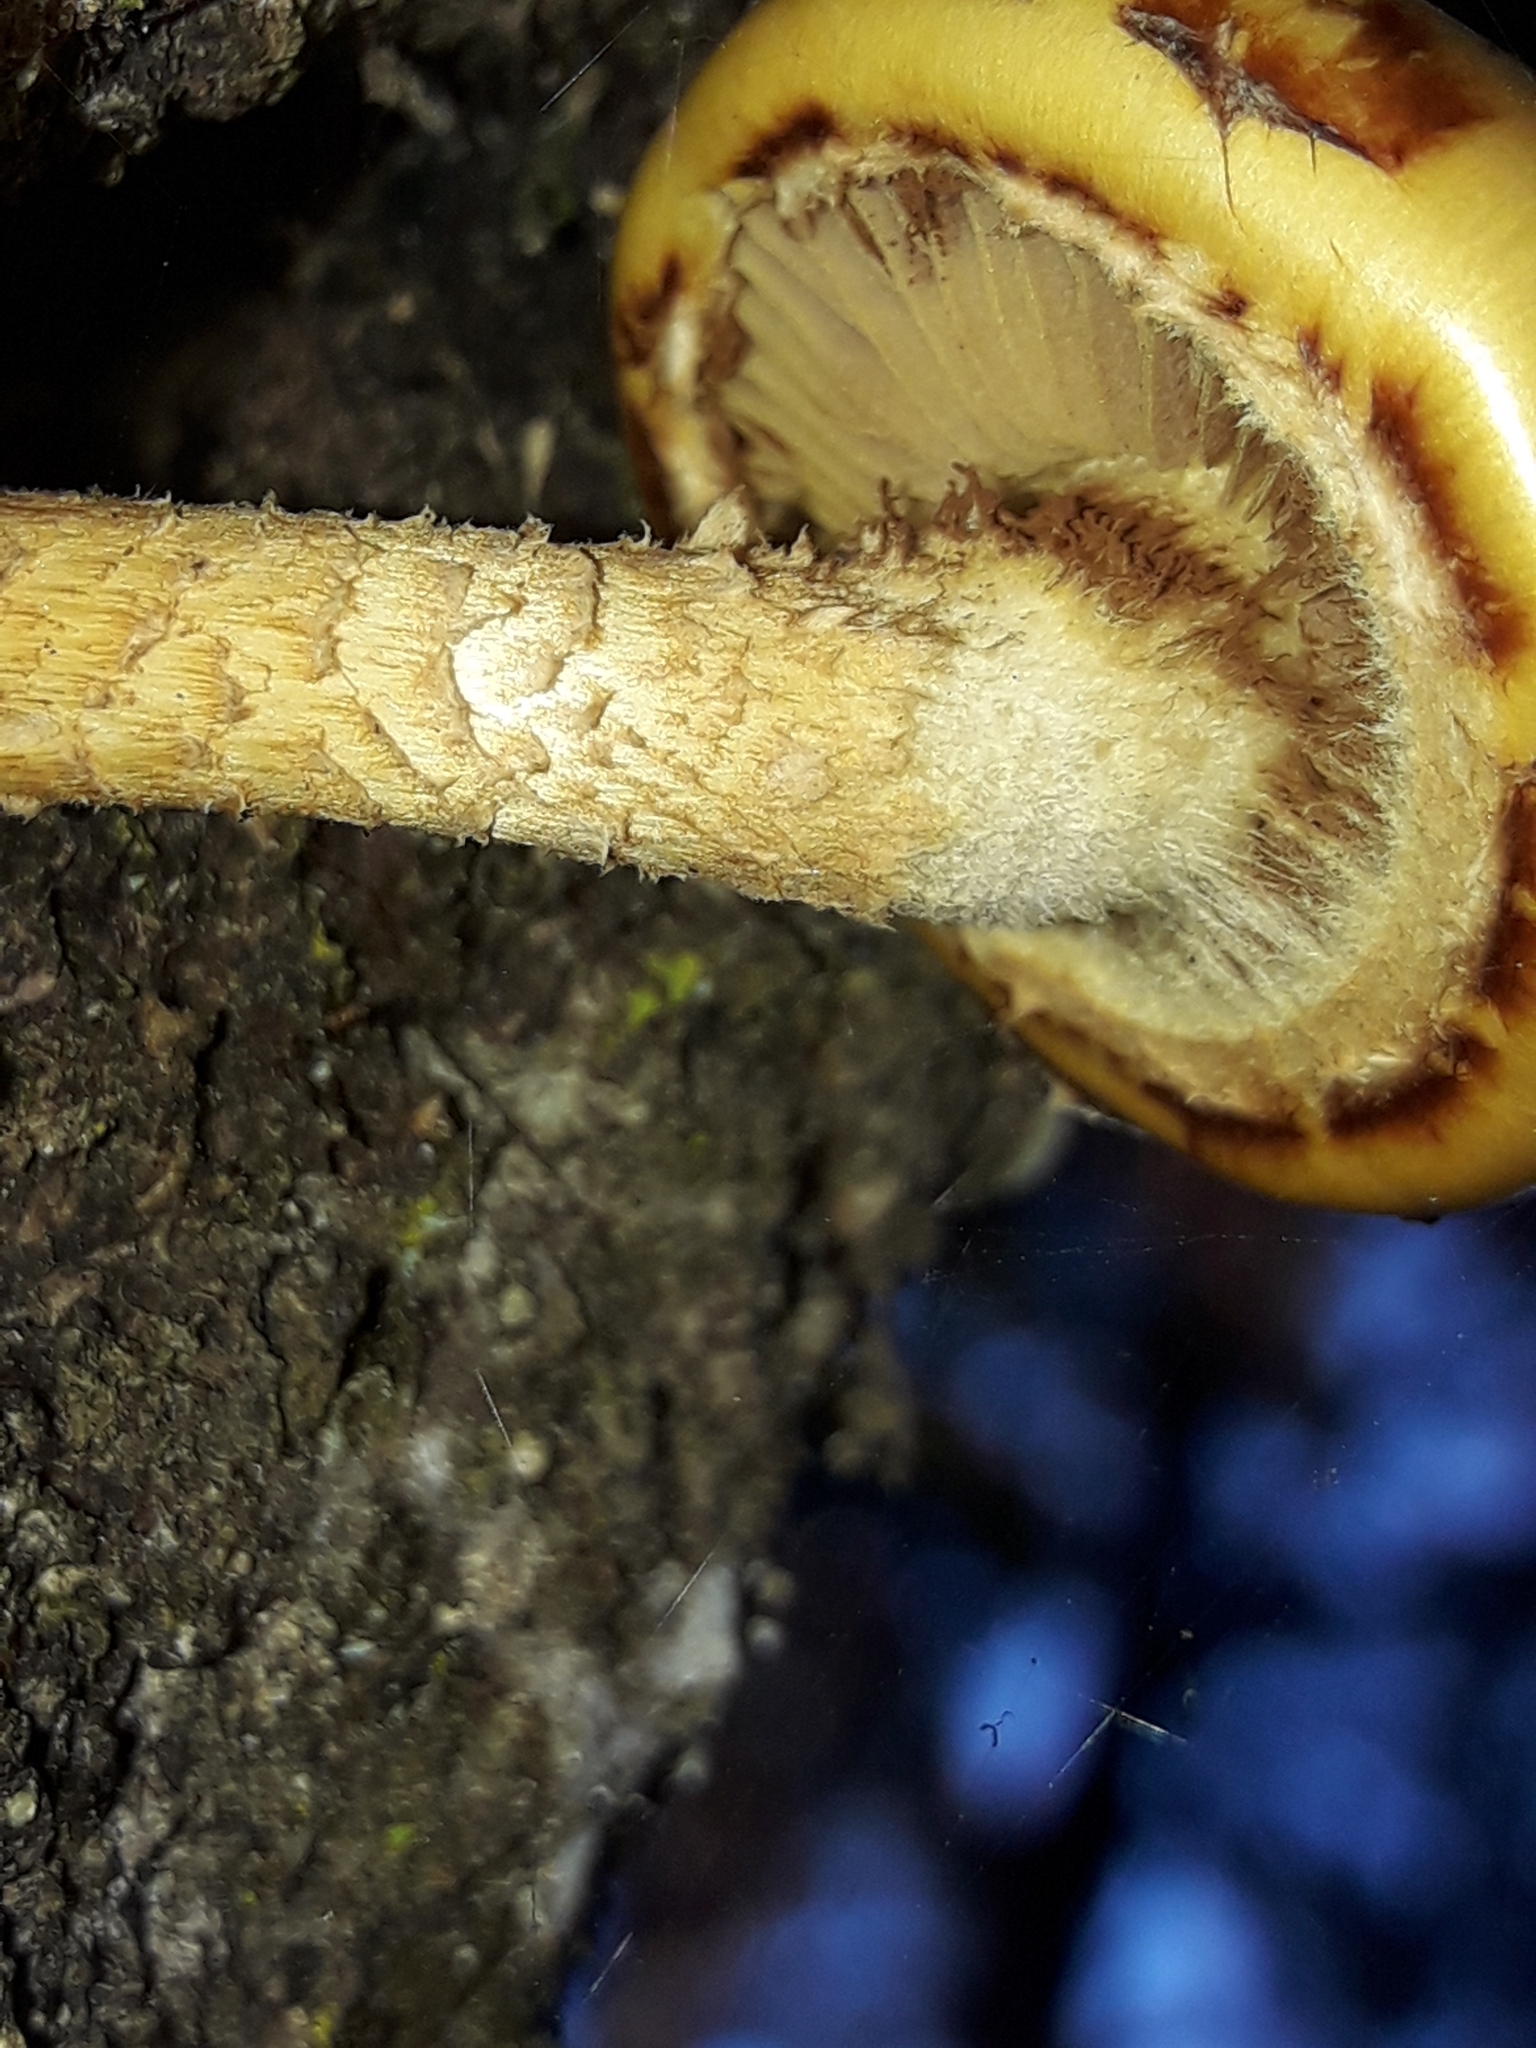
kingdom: Fungi
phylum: Basidiomycota
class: Agaricomycetes
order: Agaricales
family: Strophariaceae
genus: Pholiota
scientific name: Pholiota glutinosa
